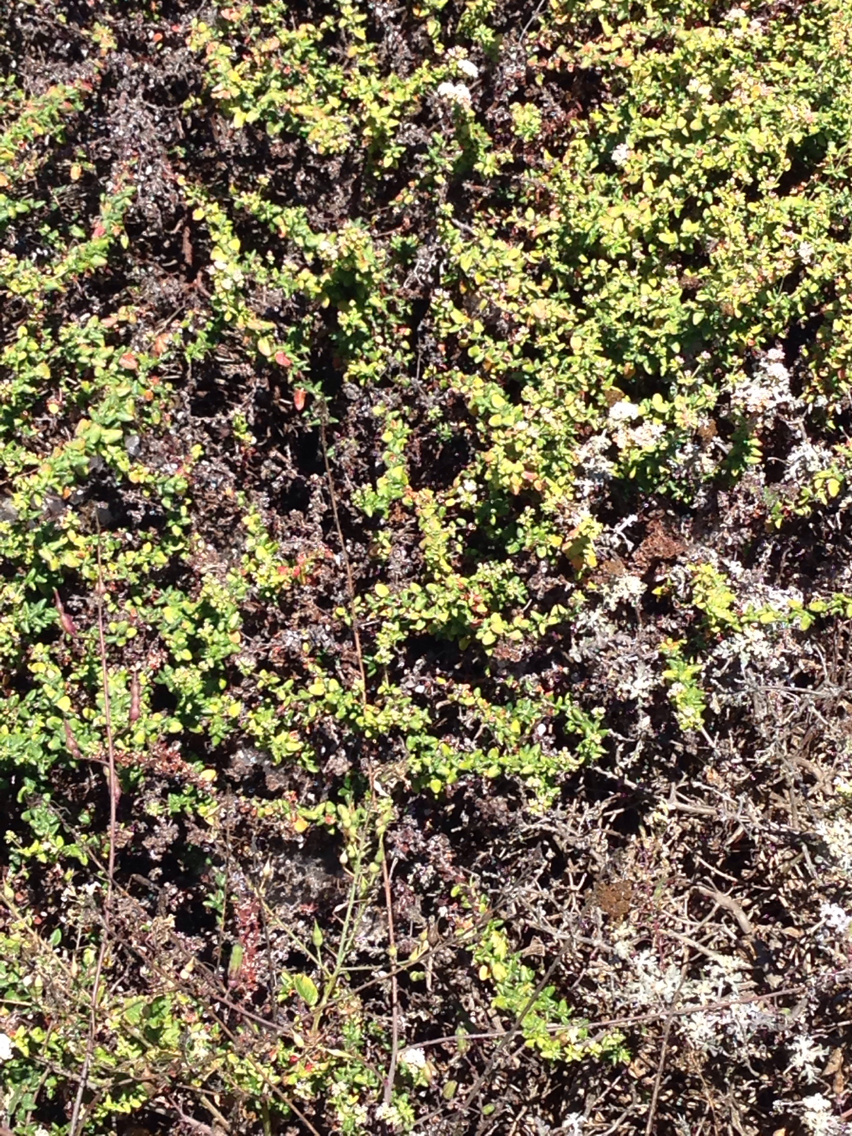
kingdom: Plantae
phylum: Tracheophyta
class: Magnoliopsida
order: Caryophyllales
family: Polygonaceae
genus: Eriogonum
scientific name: Eriogonum parvifolium
